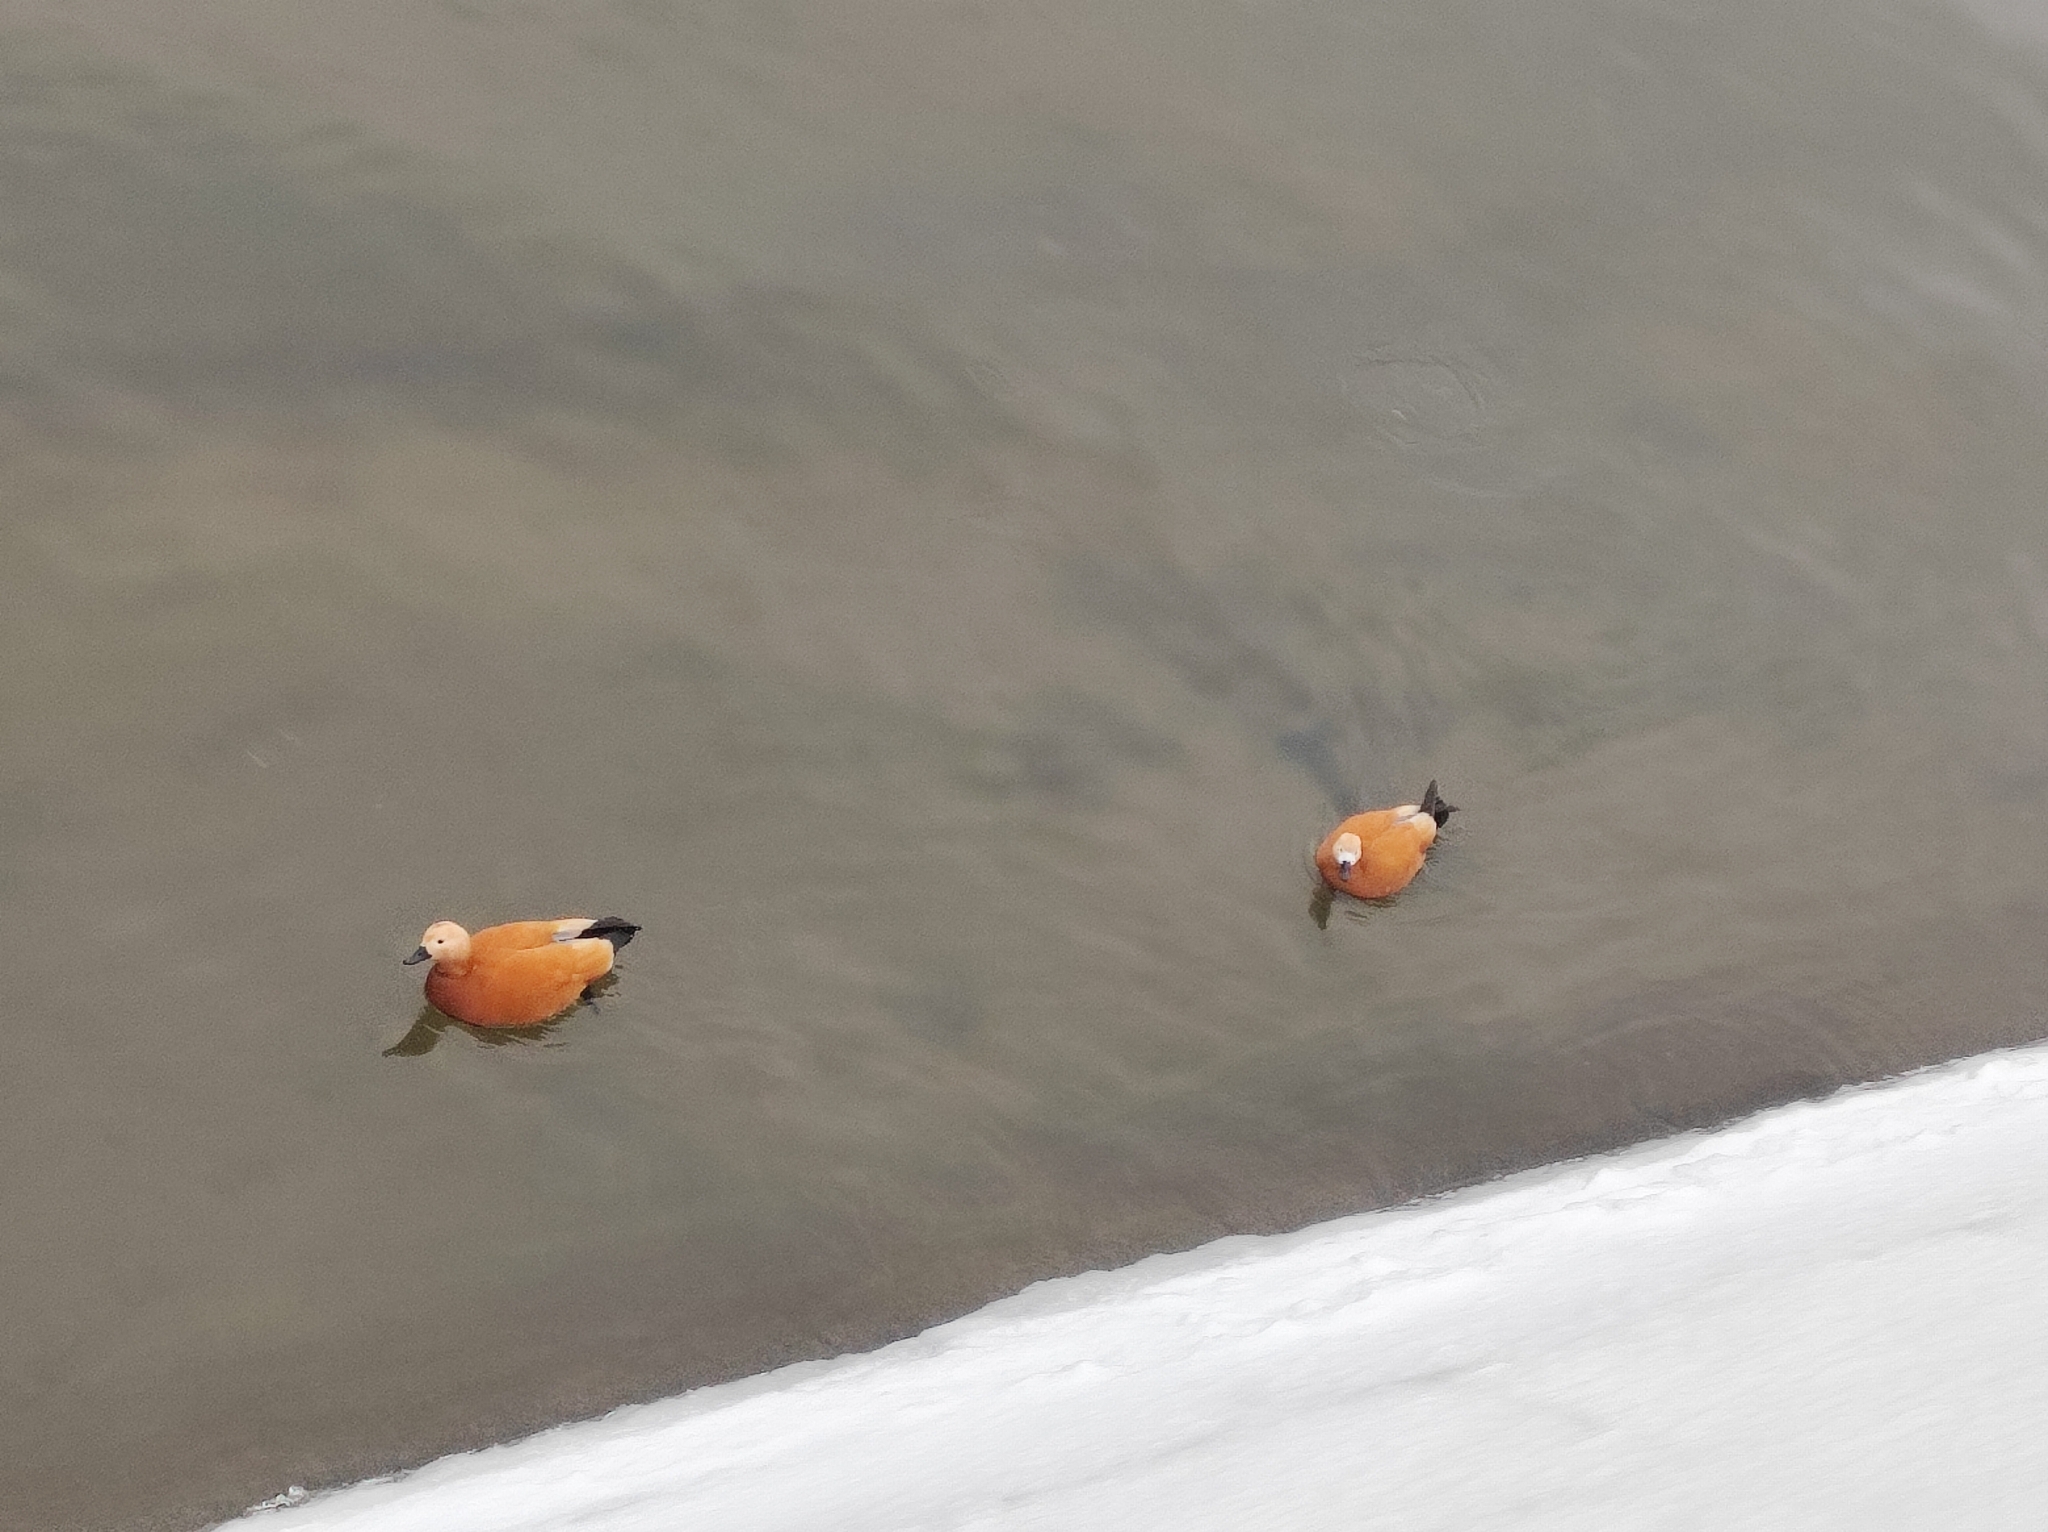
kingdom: Animalia
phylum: Chordata
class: Aves
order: Anseriformes
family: Anatidae
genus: Tadorna
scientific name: Tadorna ferruginea
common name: Ruddy shelduck
